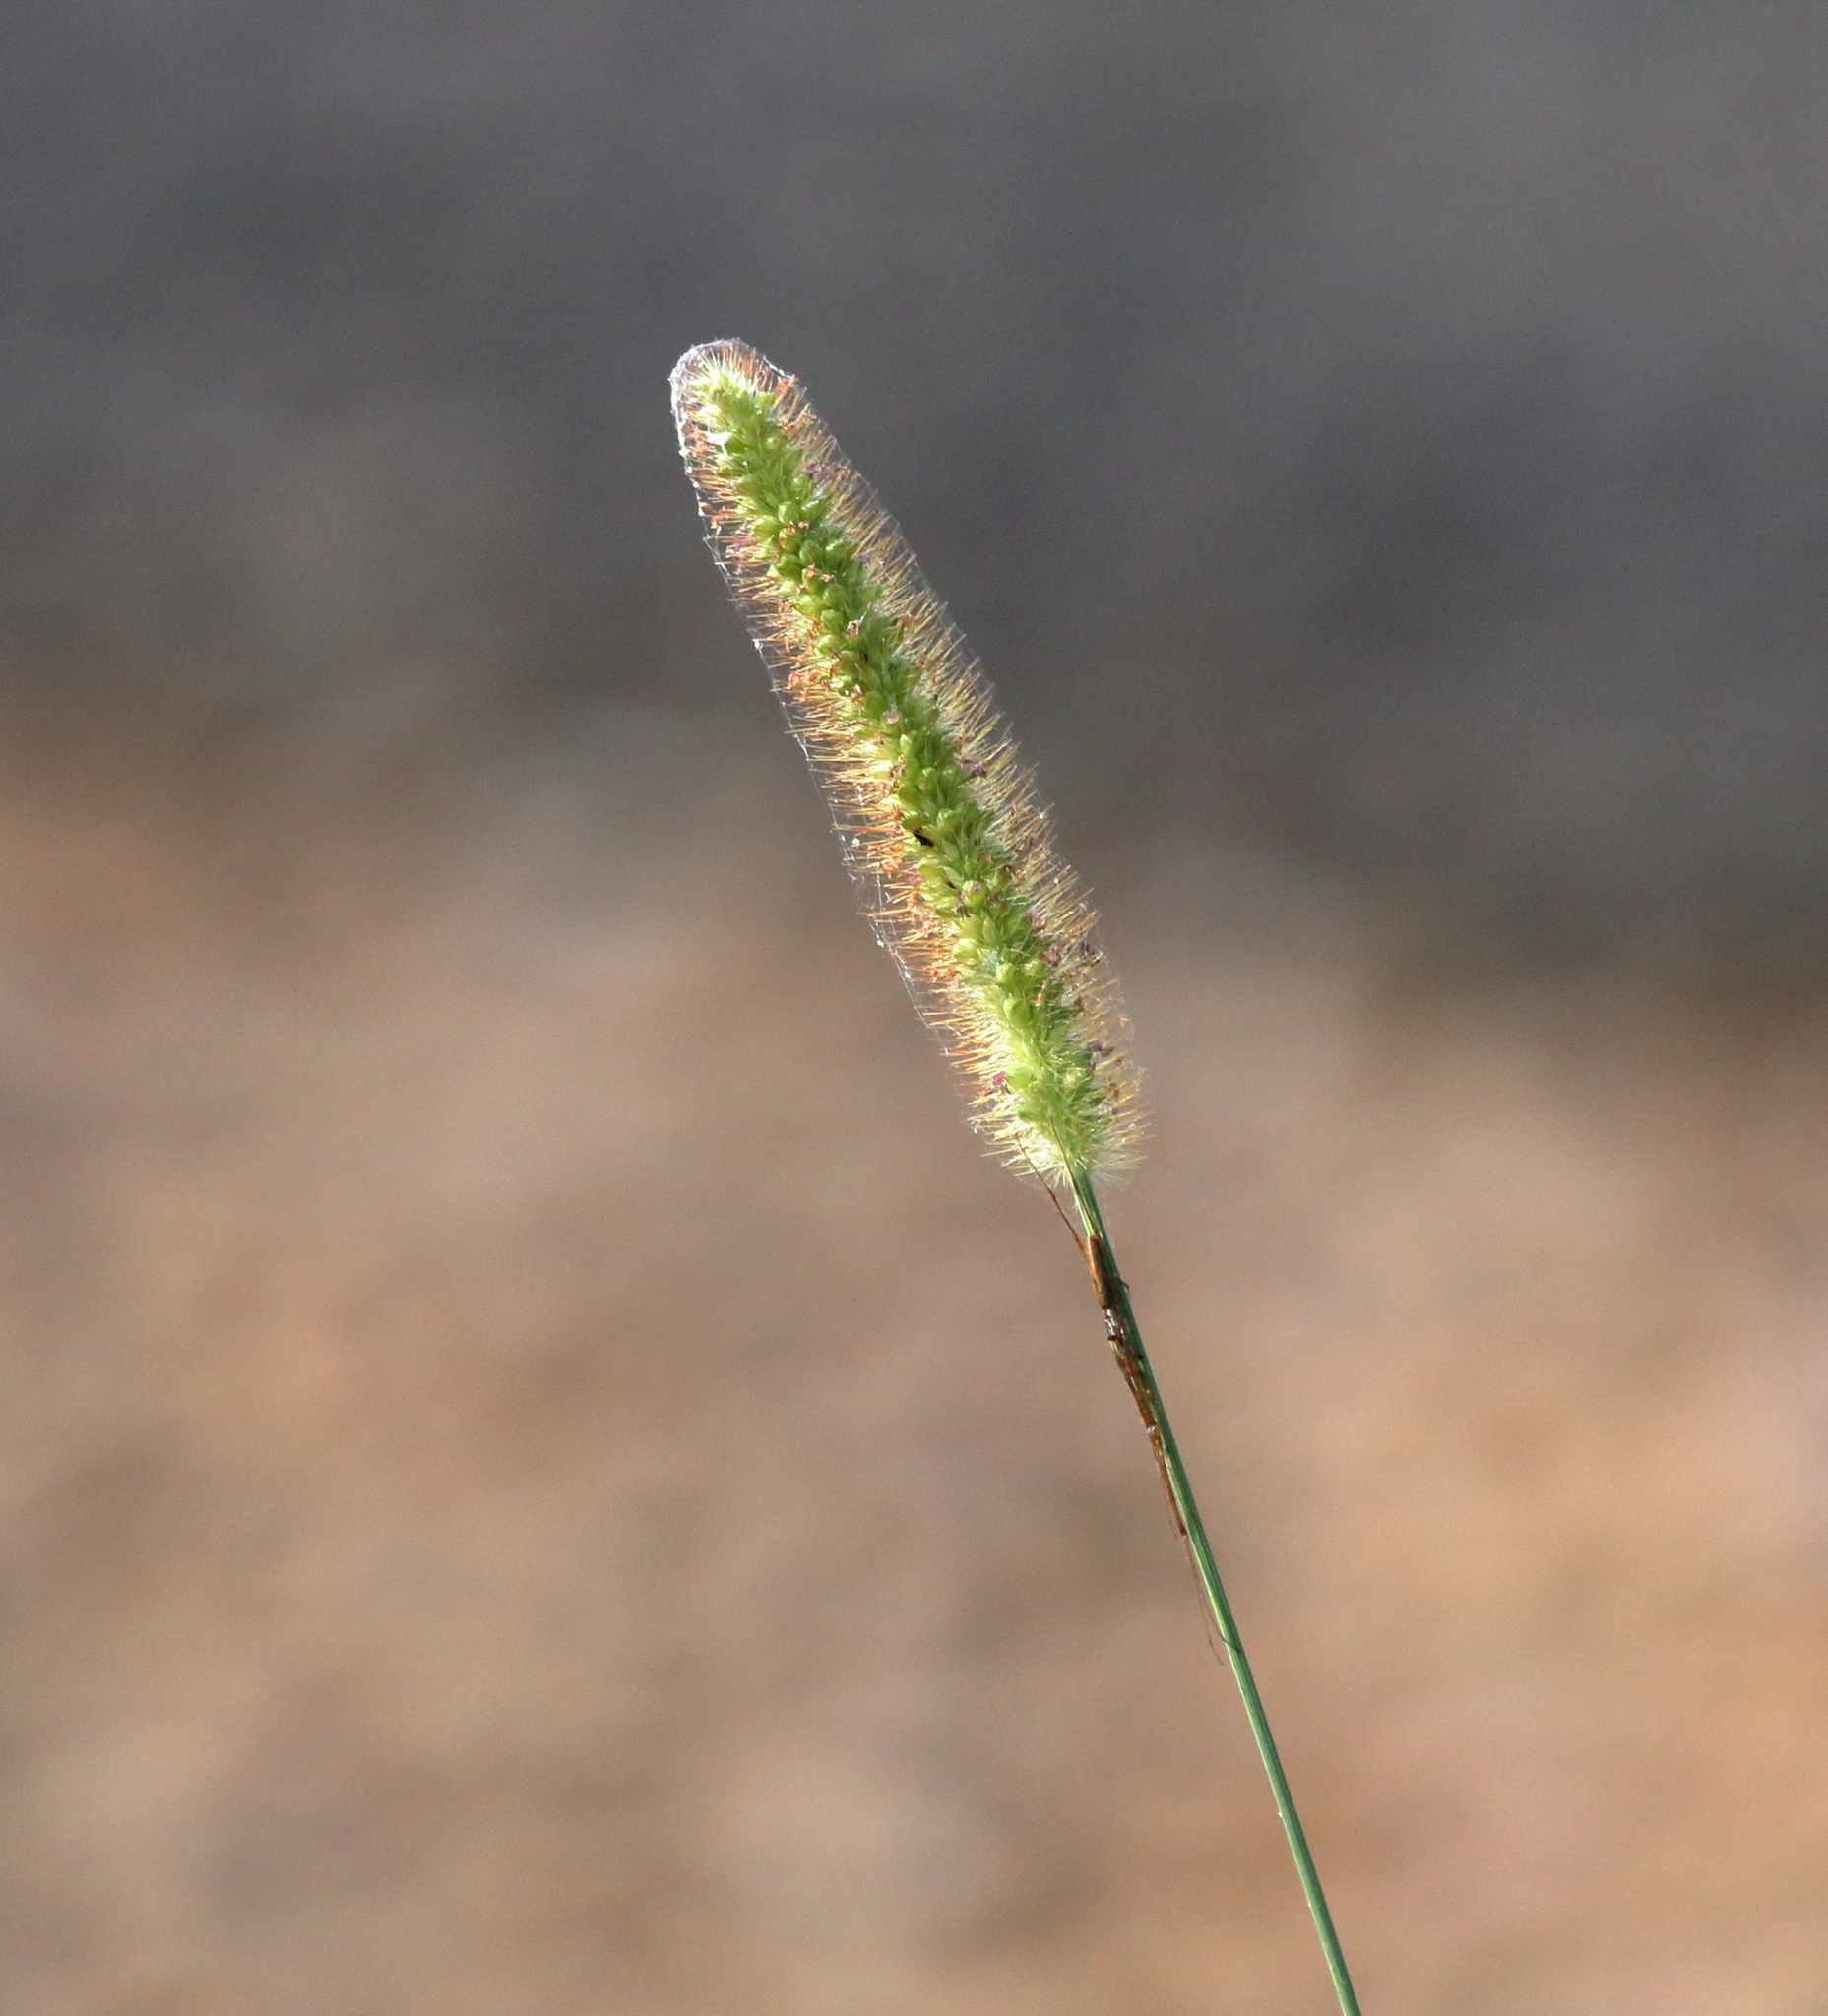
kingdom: Plantae
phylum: Tracheophyta
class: Liliopsida
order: Poales
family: Poaceae
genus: Setaria
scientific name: Setaria pumila
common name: Yellow bristle-grass
